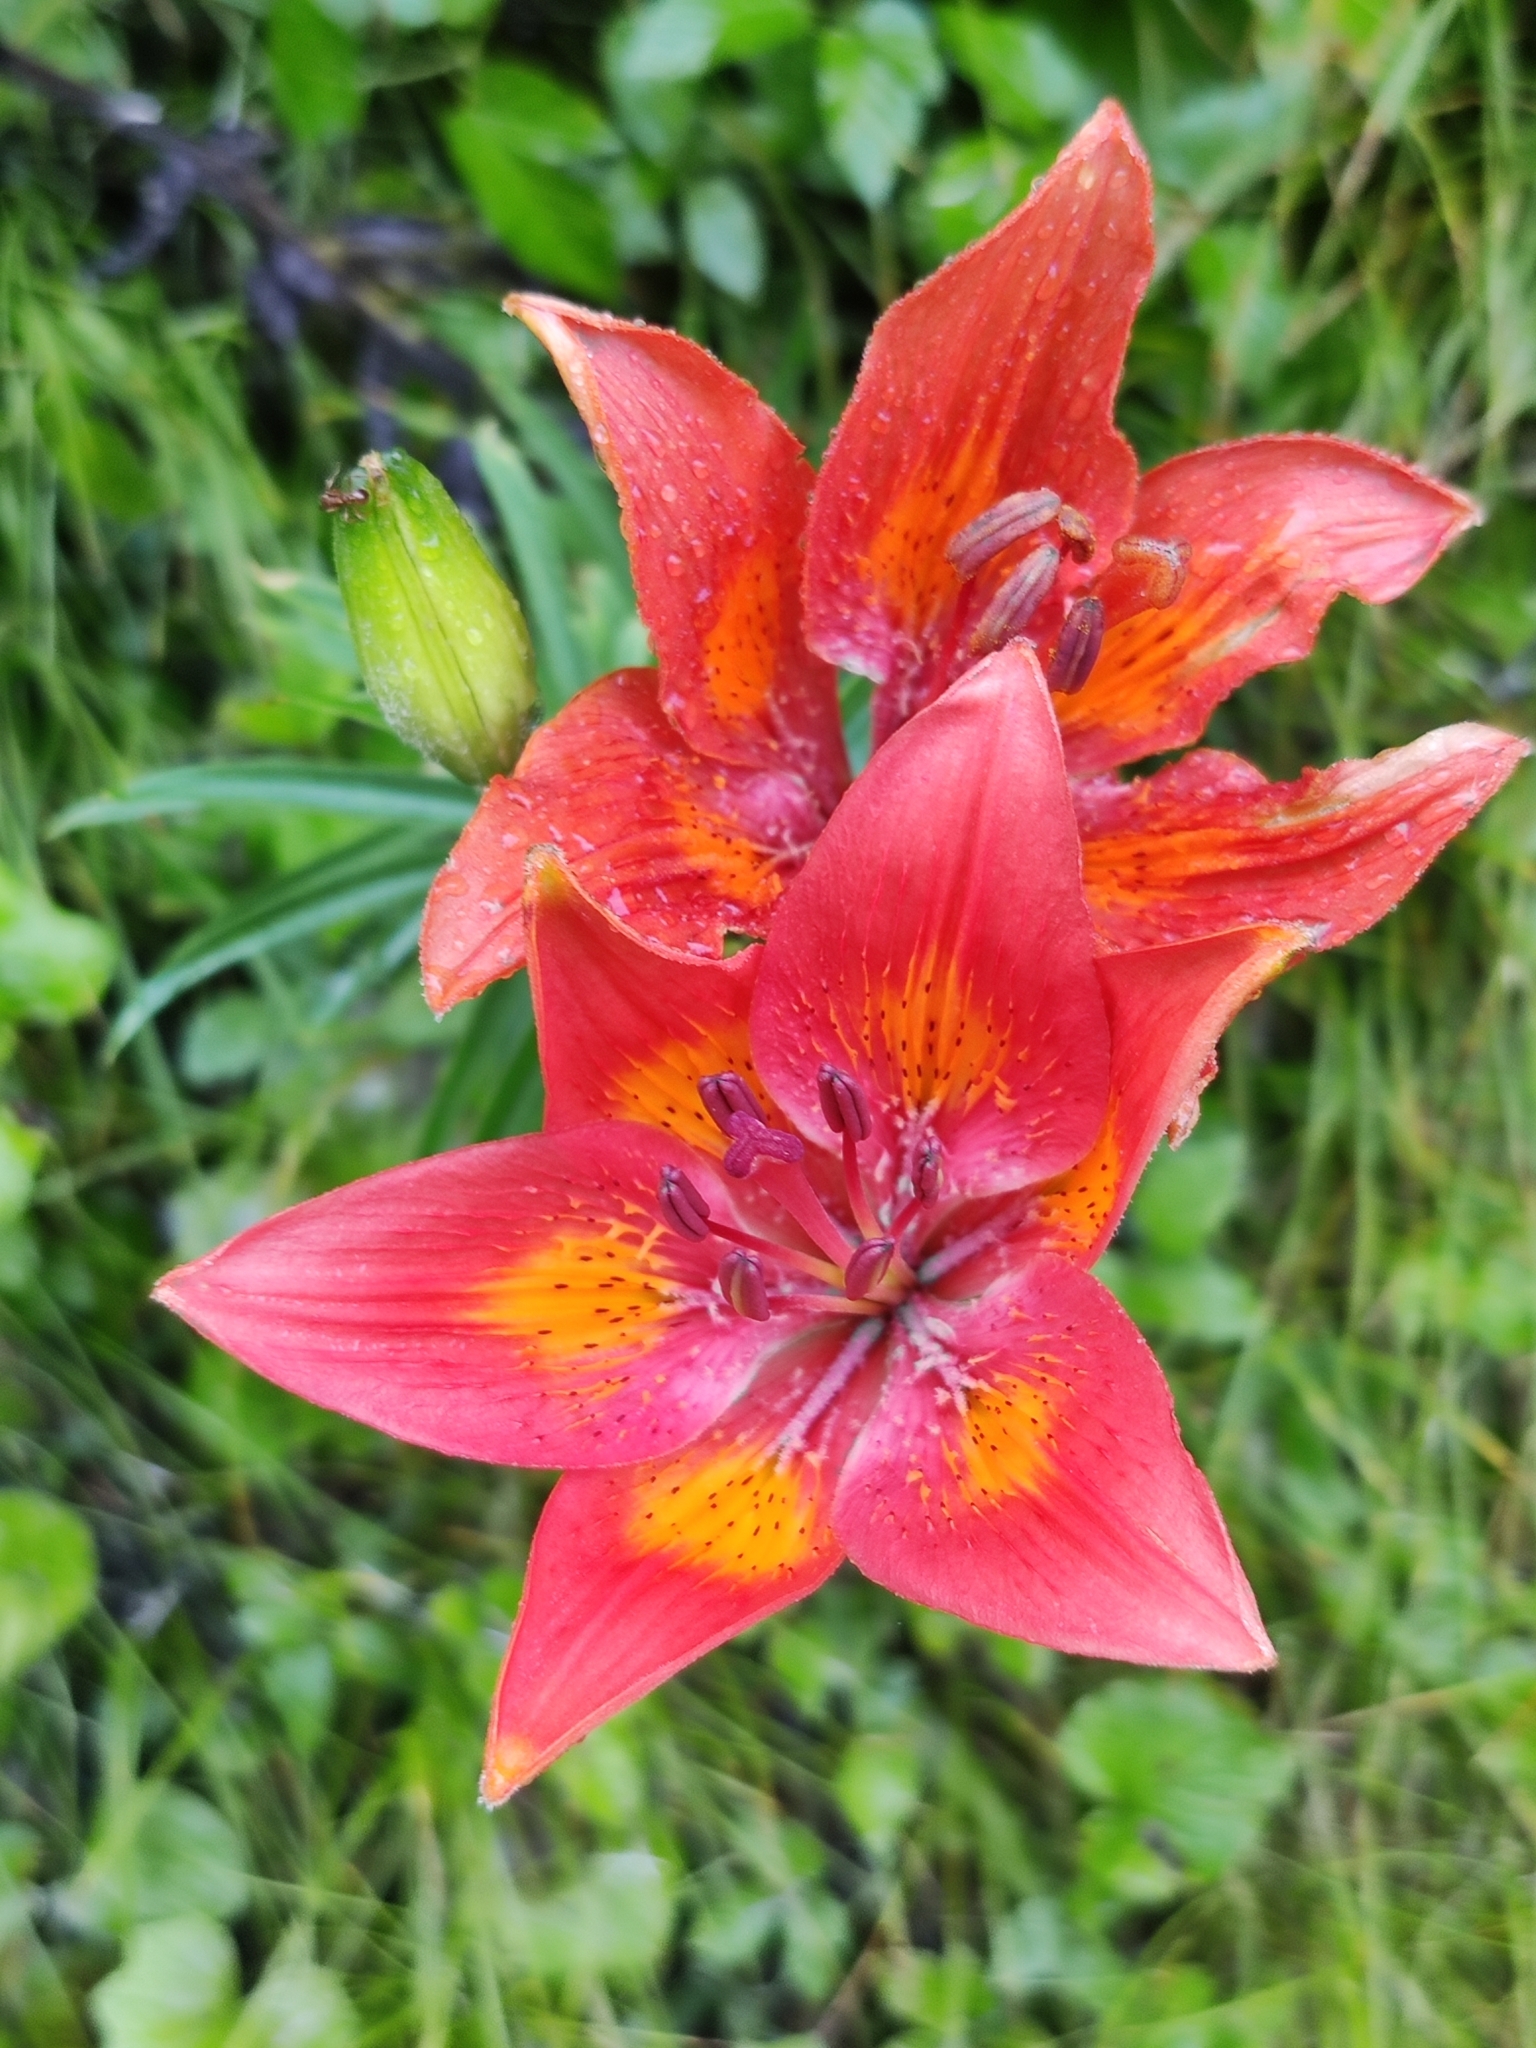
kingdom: Plantae
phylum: Tracheophyta
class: Liliopsida
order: Liliales
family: Liliaceae
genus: Lilium
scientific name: Lilium bulbiferum
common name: Orange lily
